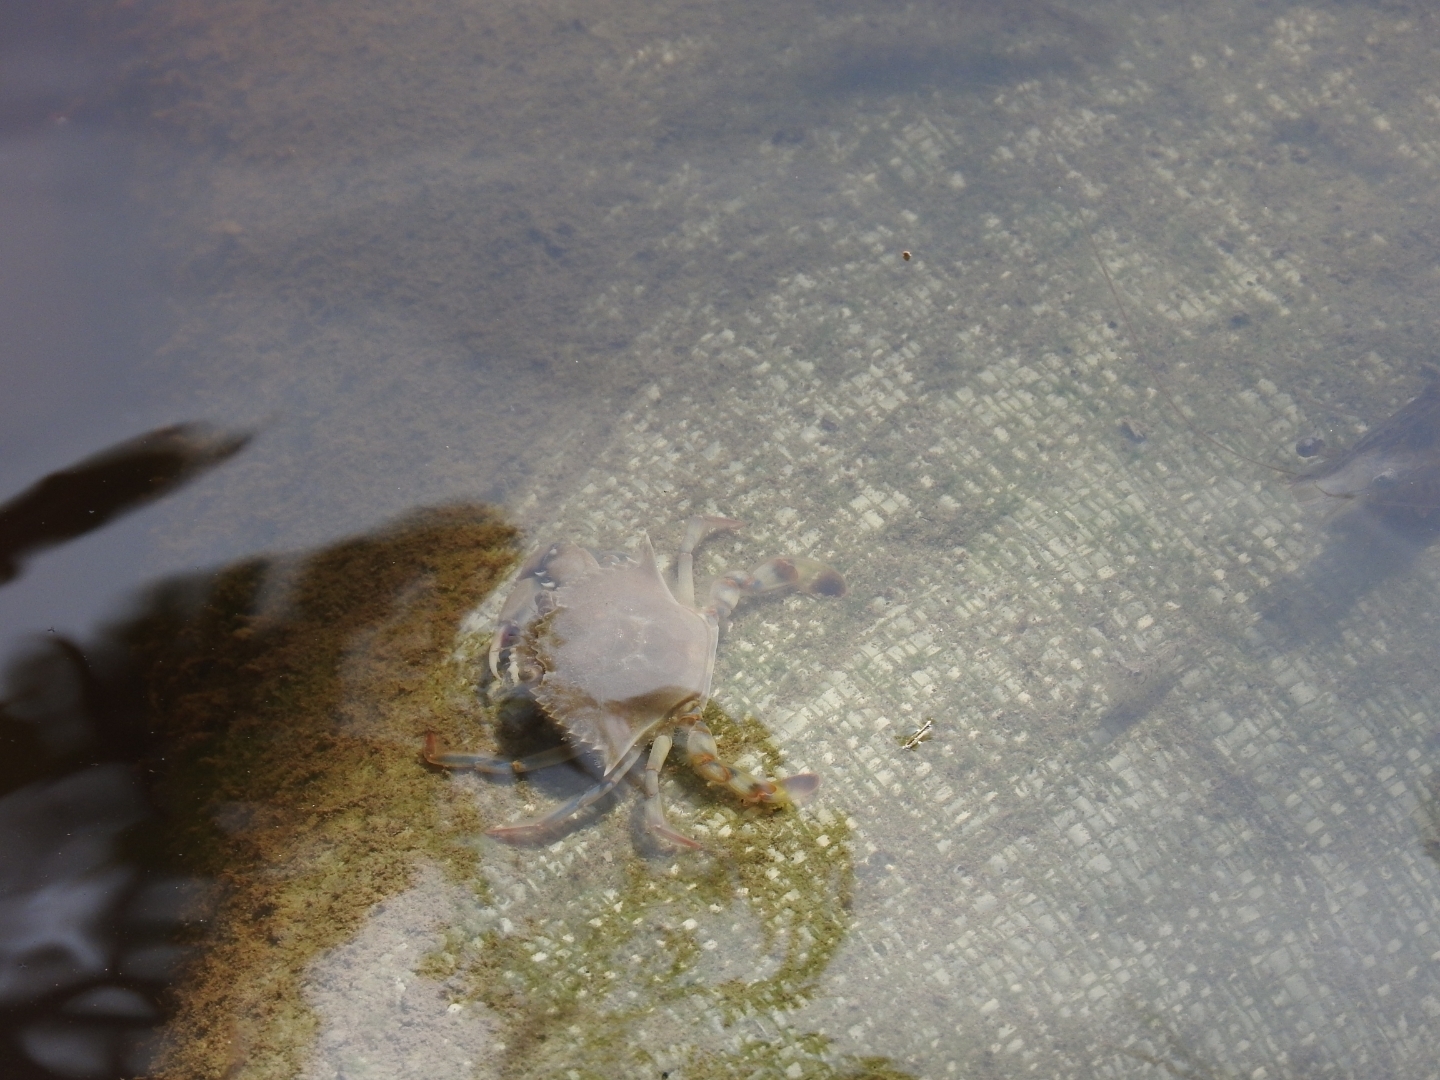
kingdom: Animalia
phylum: Arthropoda
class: Malacostraca
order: Decapoda
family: Portunidae
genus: Callinectes
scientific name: Callinectes ornatus
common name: Ornate crab
